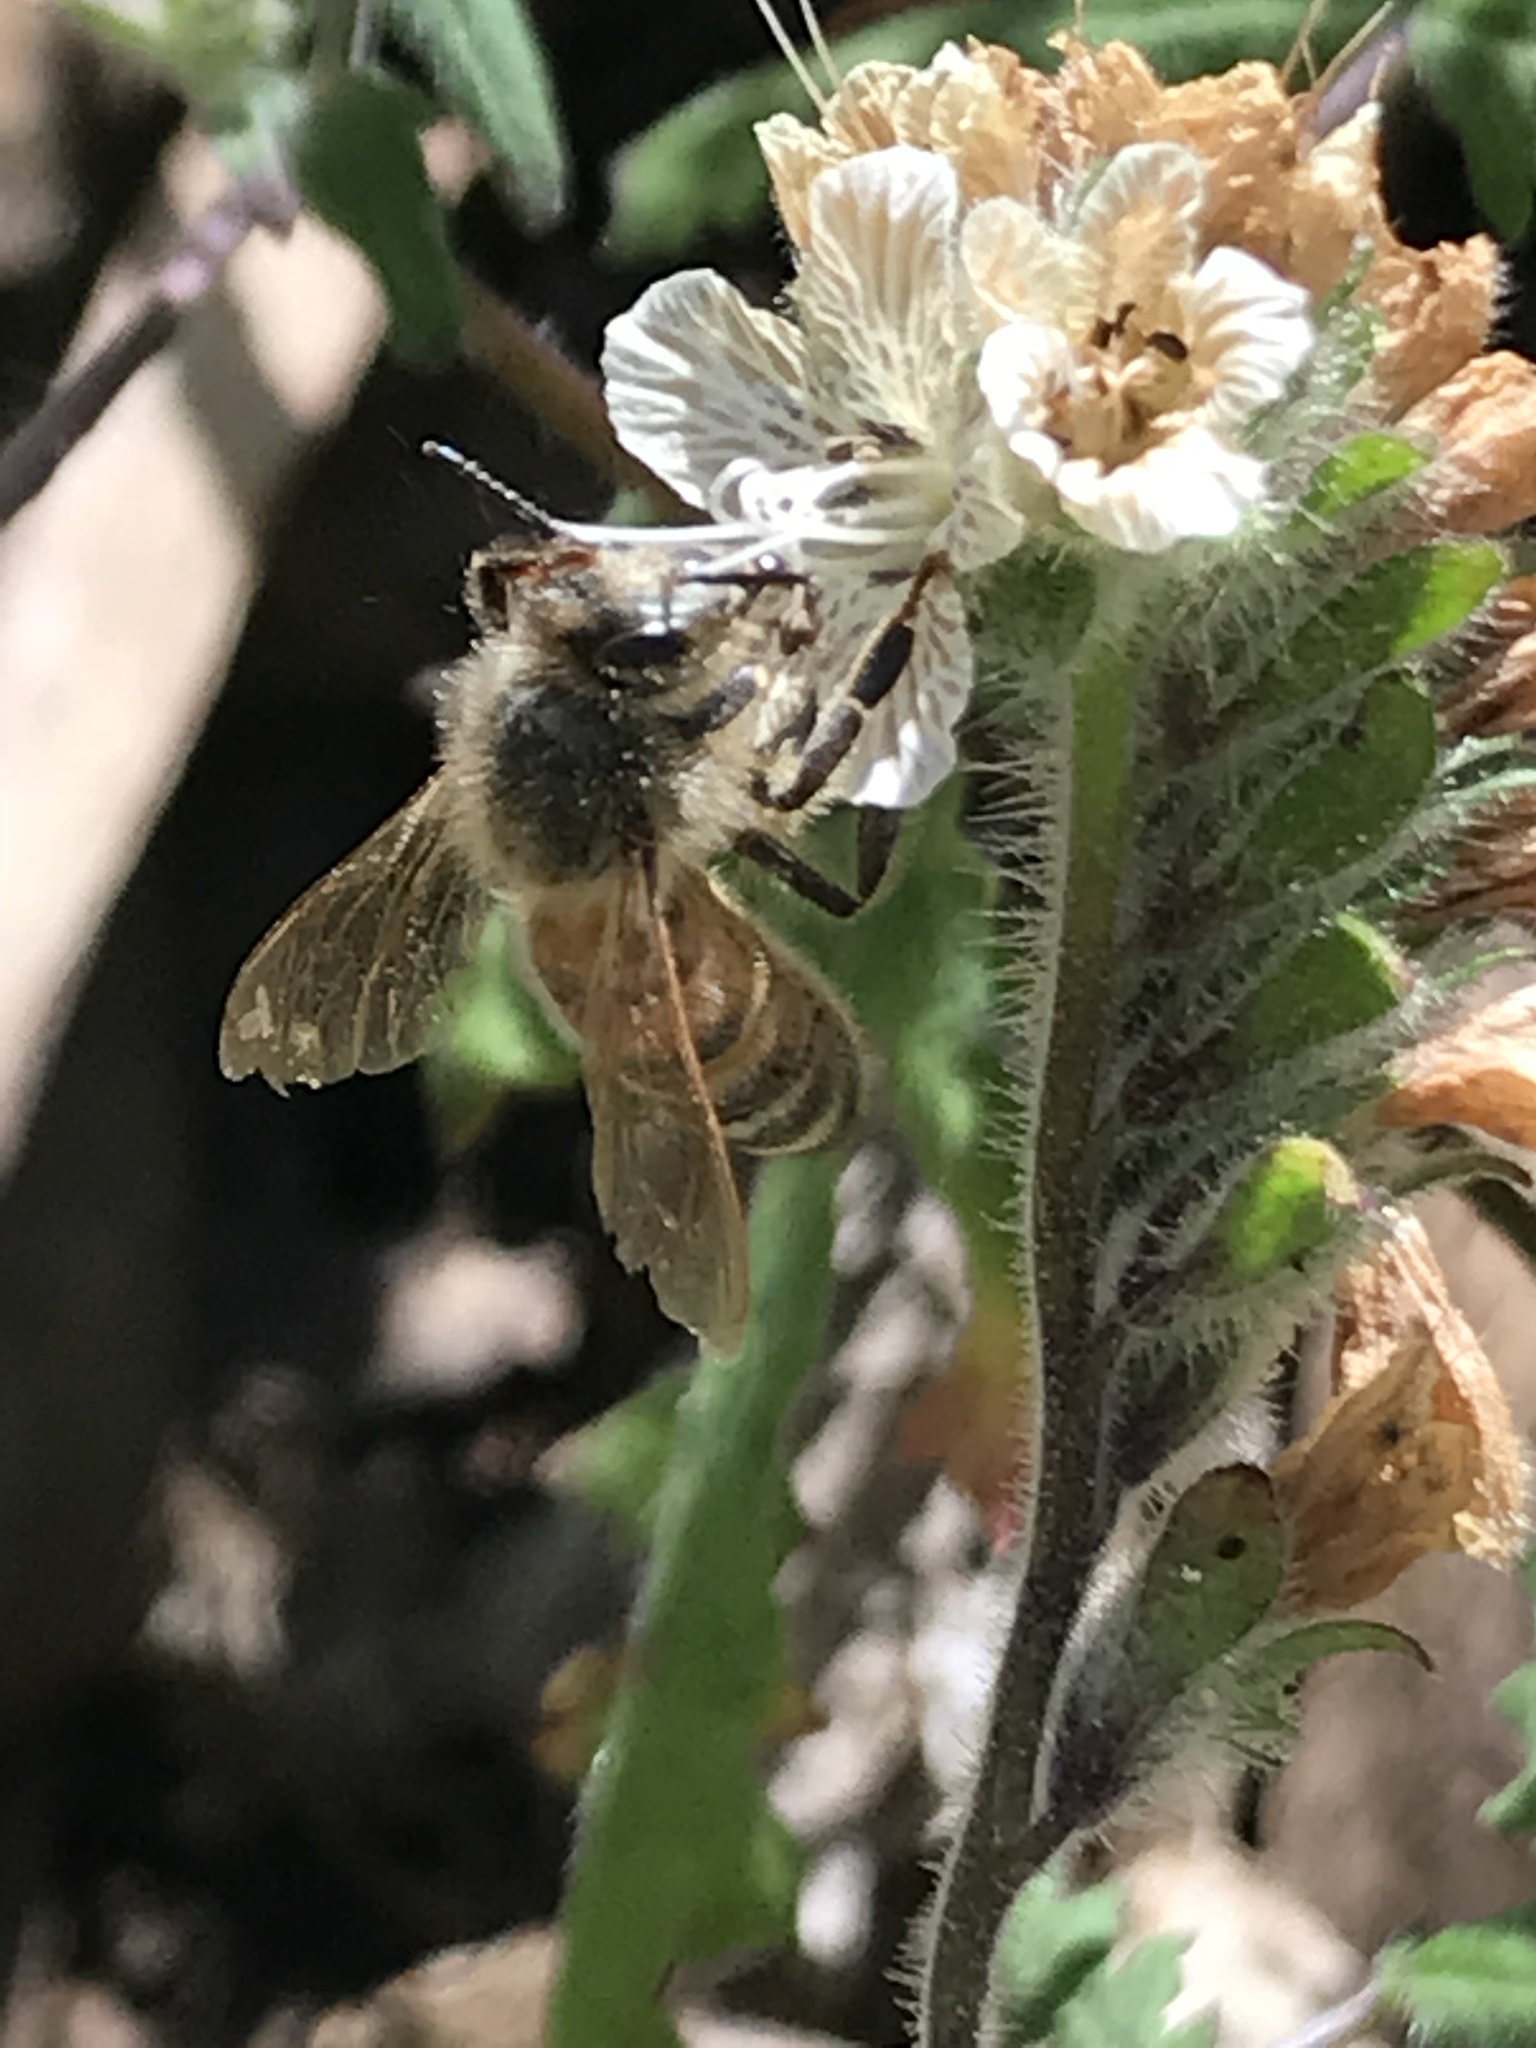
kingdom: Animalia
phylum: Arthropoda
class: Insecta
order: Hymenoptera
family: Apidae
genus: Apis
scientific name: Apis mellifera
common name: Honey bee
